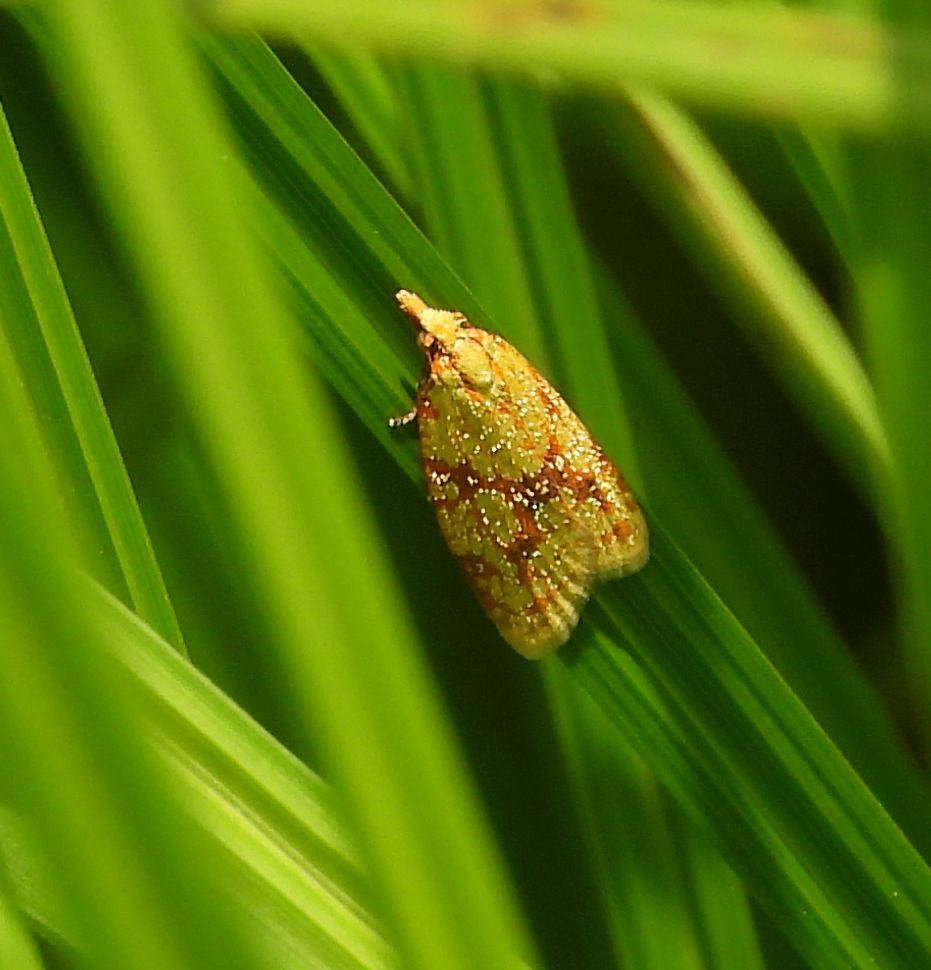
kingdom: Animalia
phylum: Arthropoda
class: Insecta
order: Lepidoptera
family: Tortricidae
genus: Sparganothis
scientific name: Sparganothis sulfureana
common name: Sparganothis fruitworm moth
